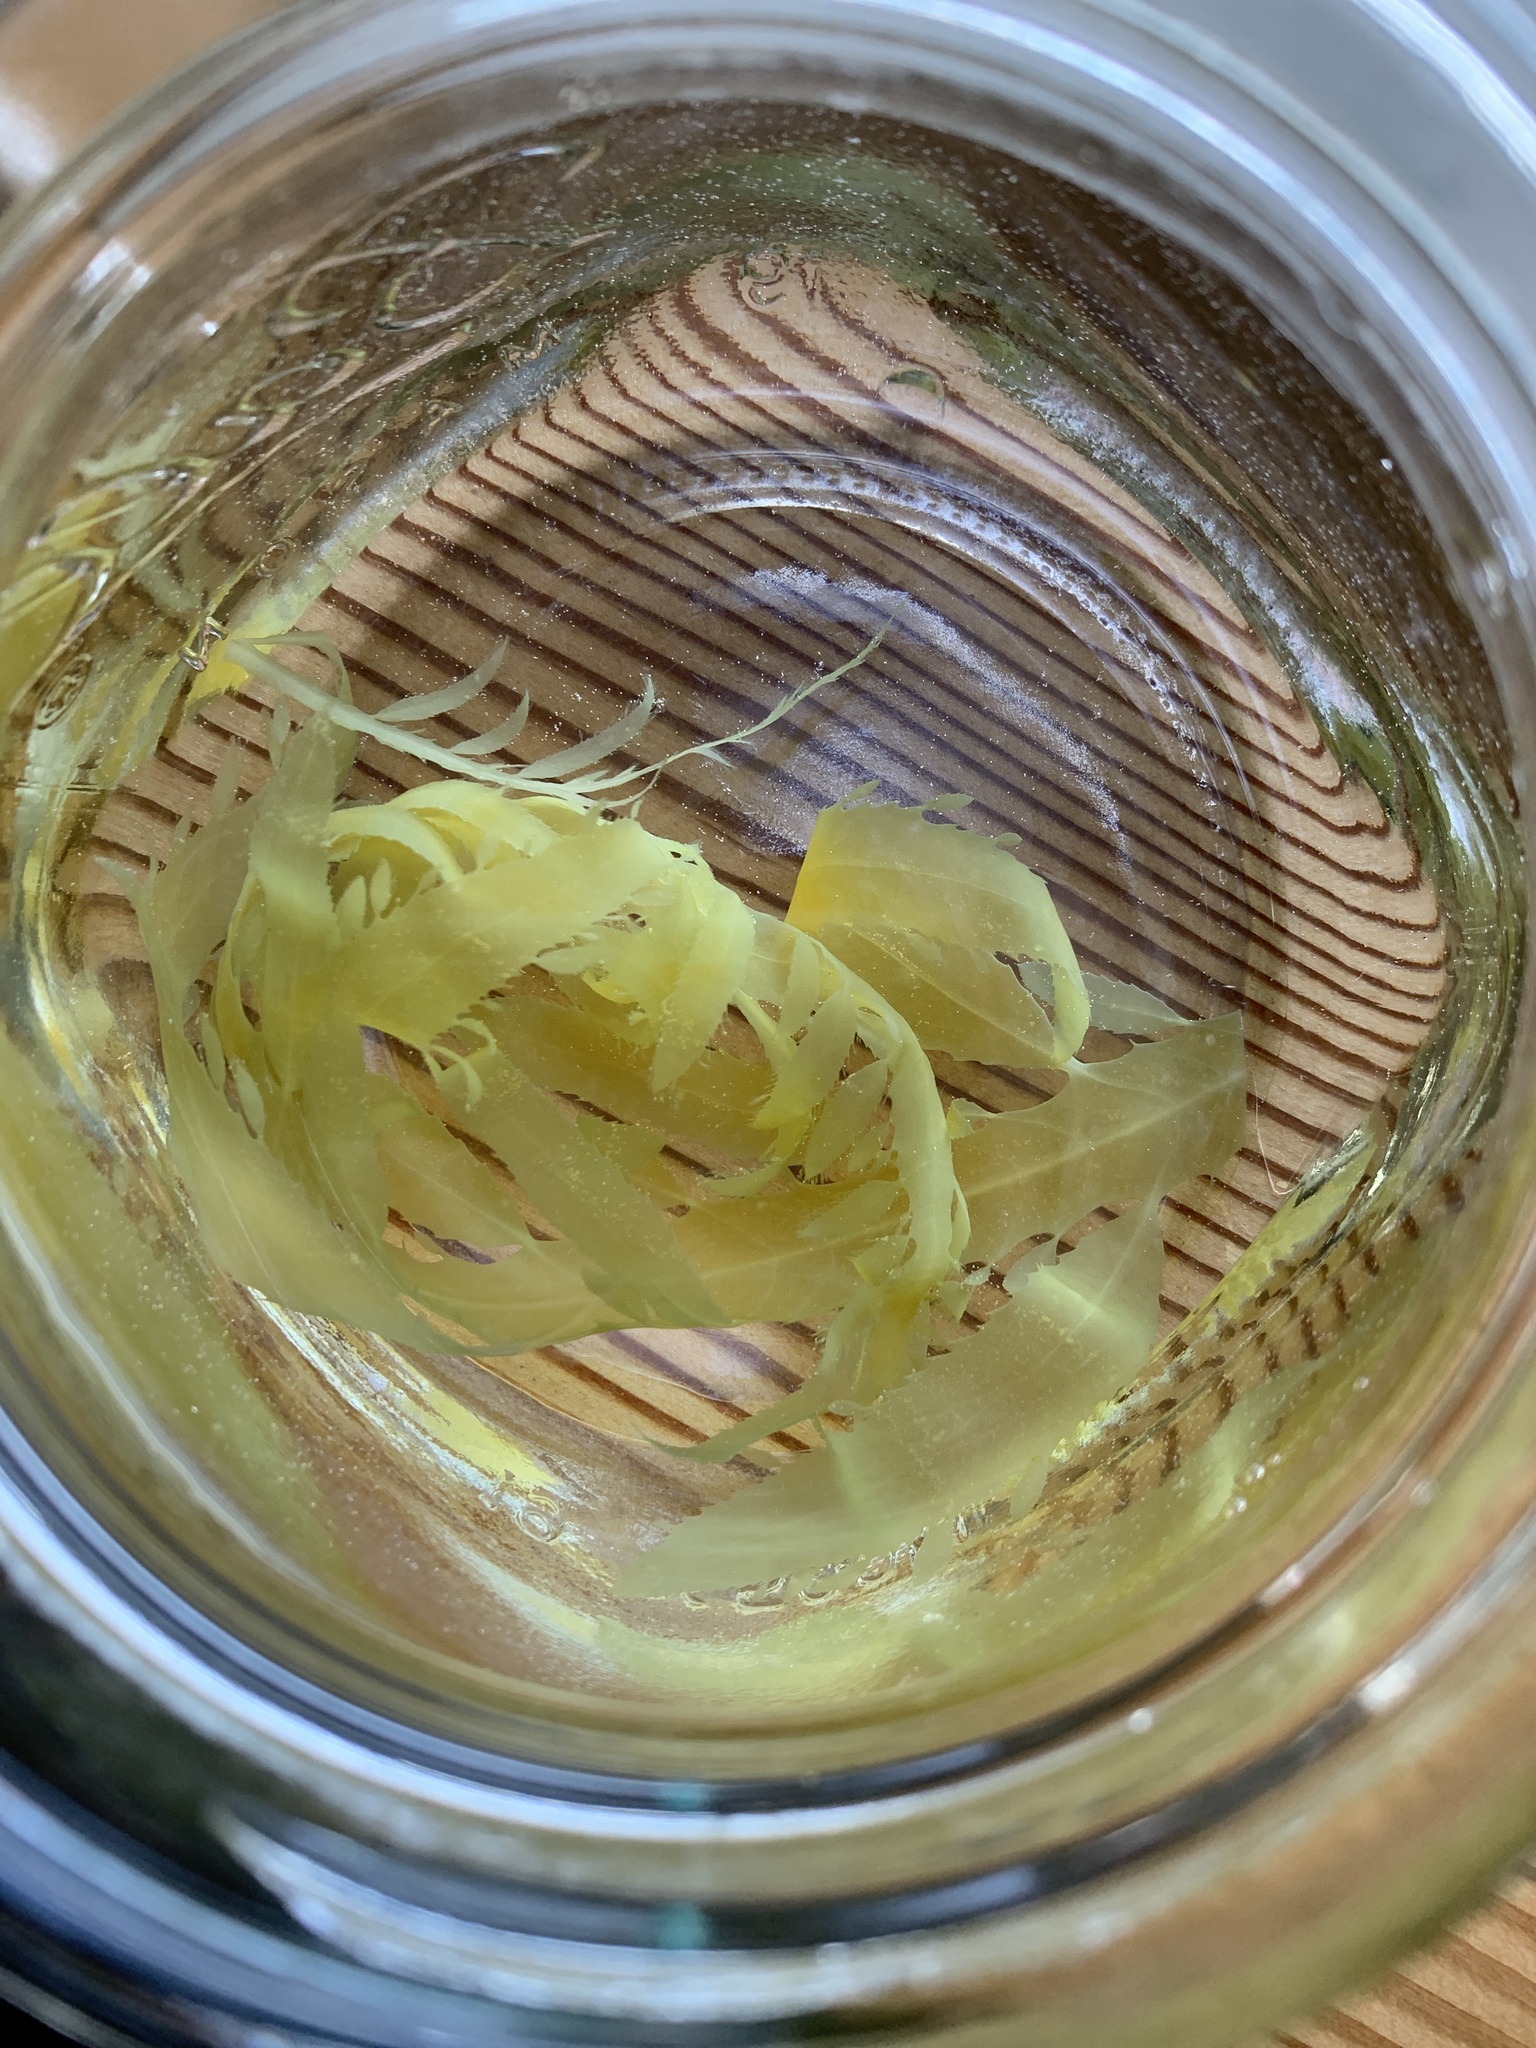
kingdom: Chromista
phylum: Ochrophyta
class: Phaeophyceae
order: Desmarestiales
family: Desmarestiaceae
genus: Desmarestia
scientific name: Desmarestia ligulata
